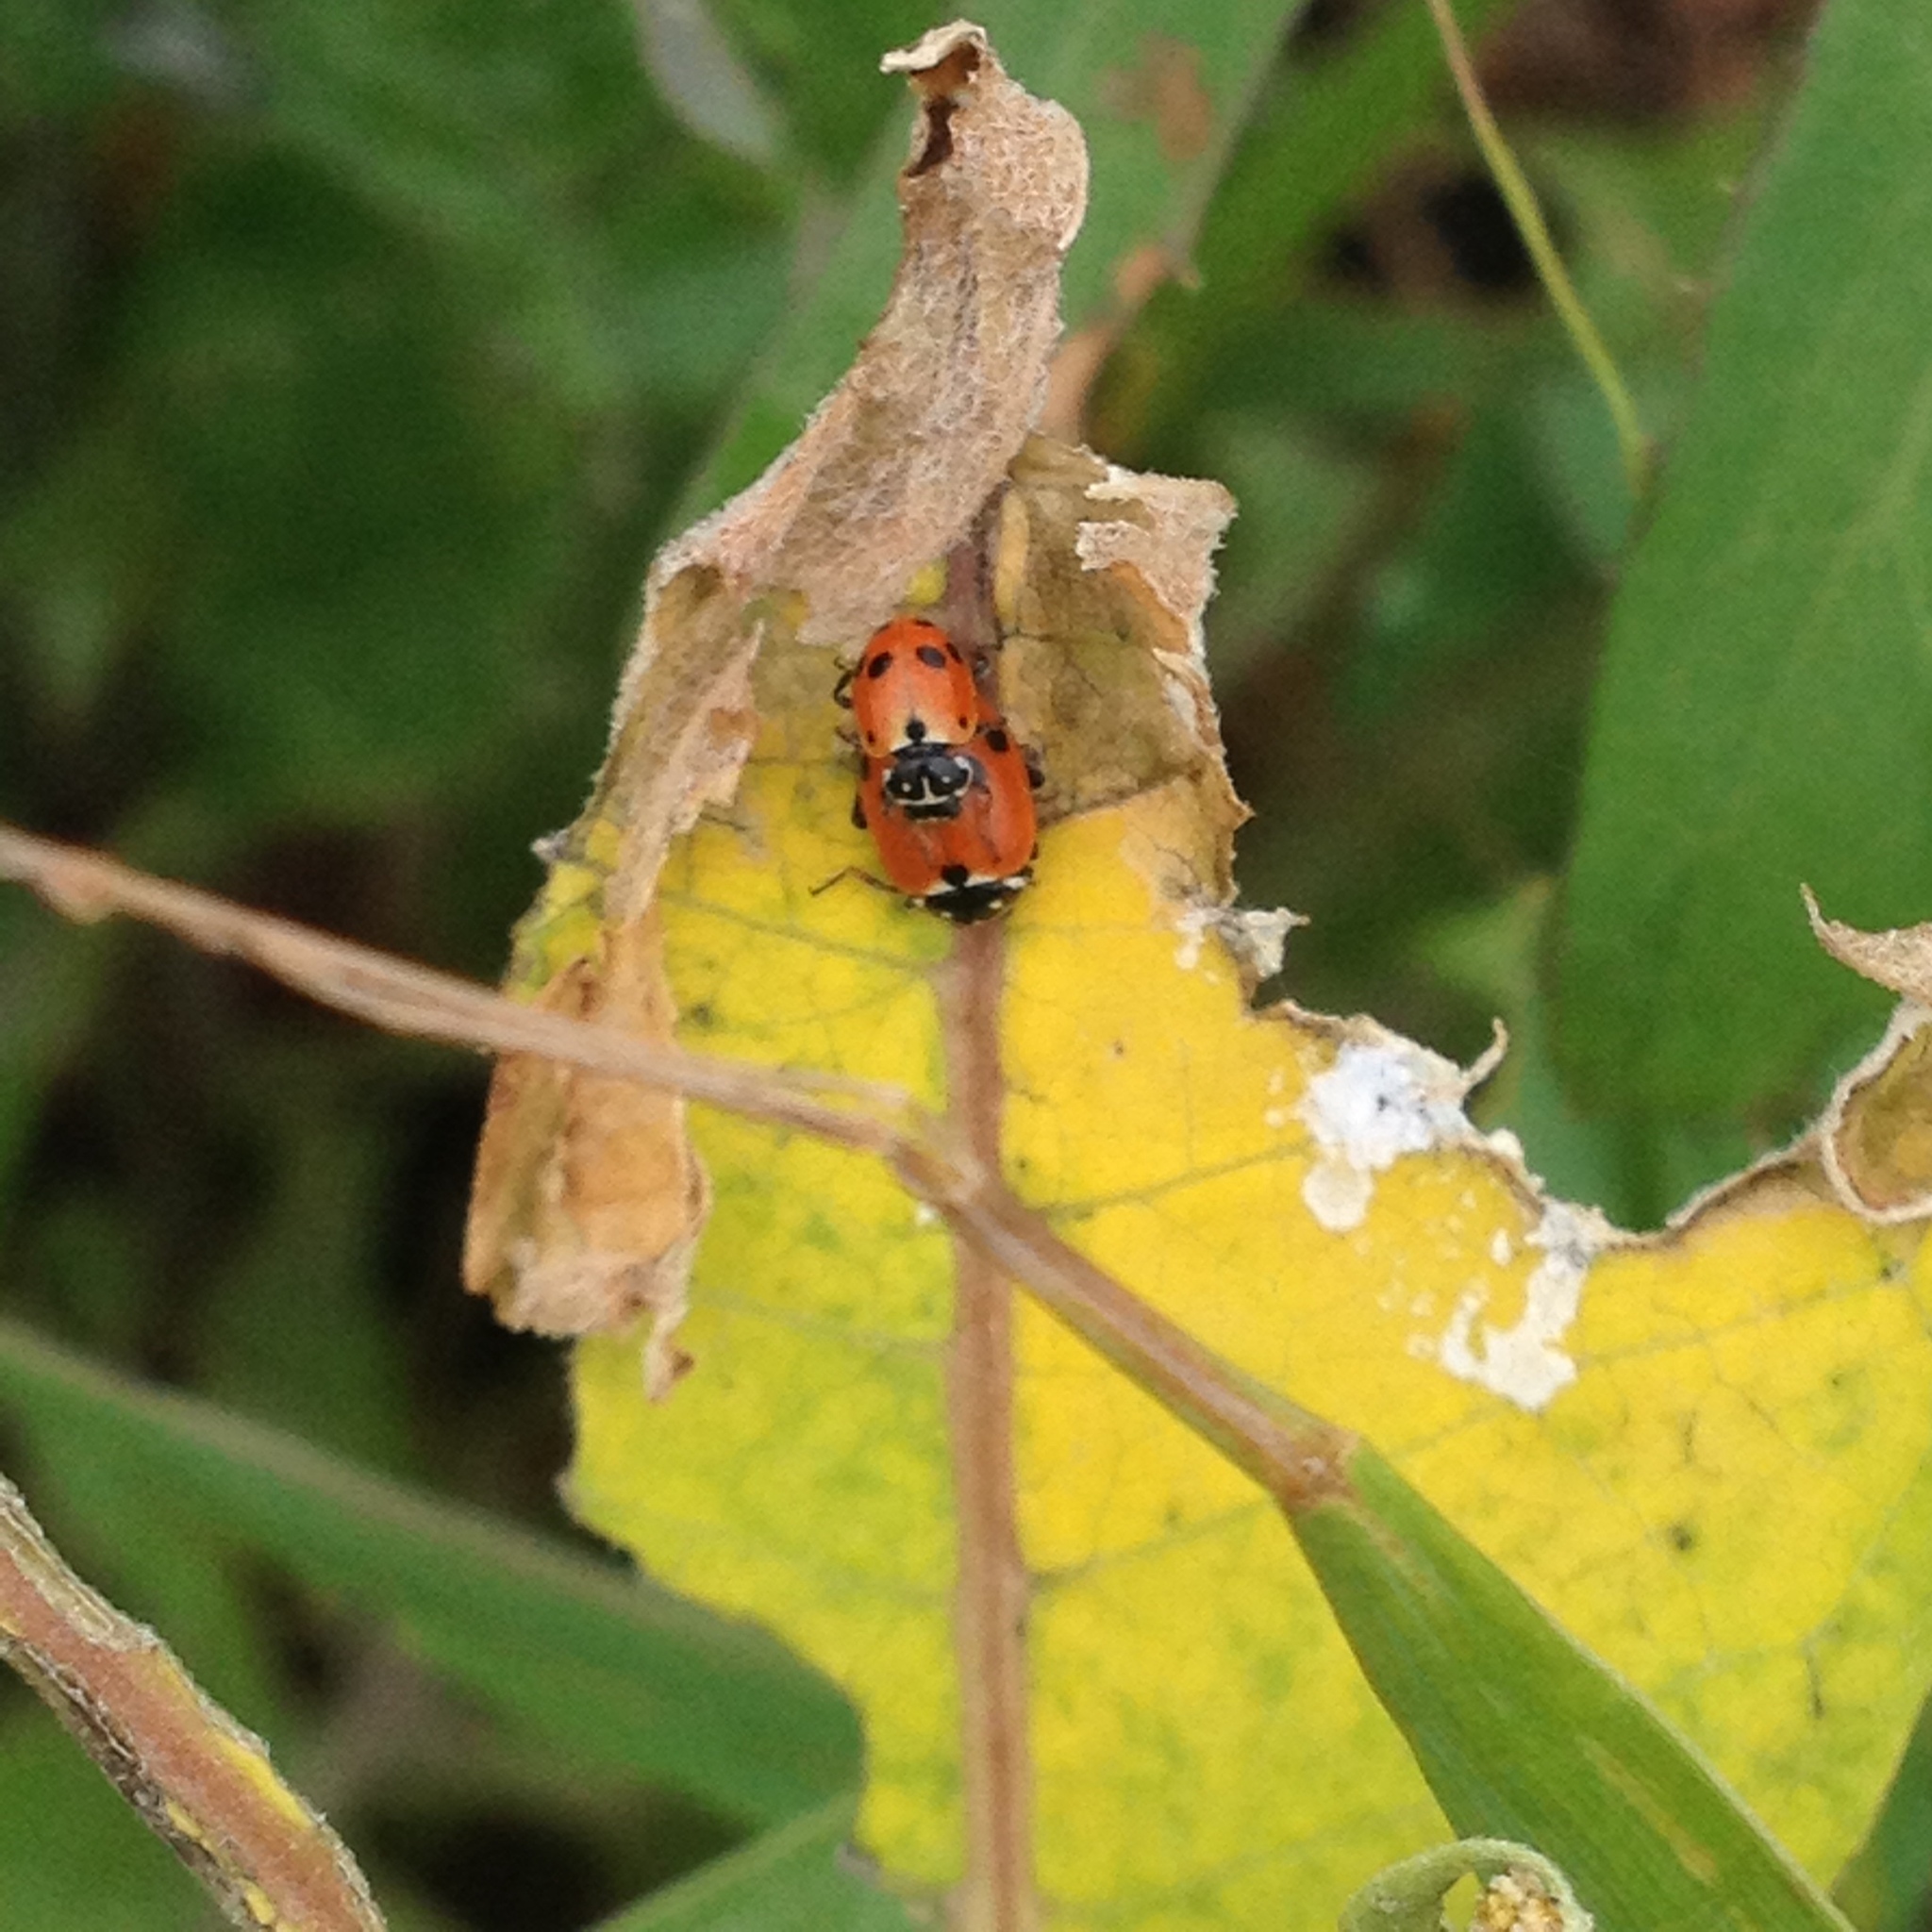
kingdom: Animalia
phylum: Arthropoda
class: Insecta
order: Coleoptera
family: Coccinellidae
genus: Hippodamia
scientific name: Hippodamia variegata
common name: Ladybird beetle
